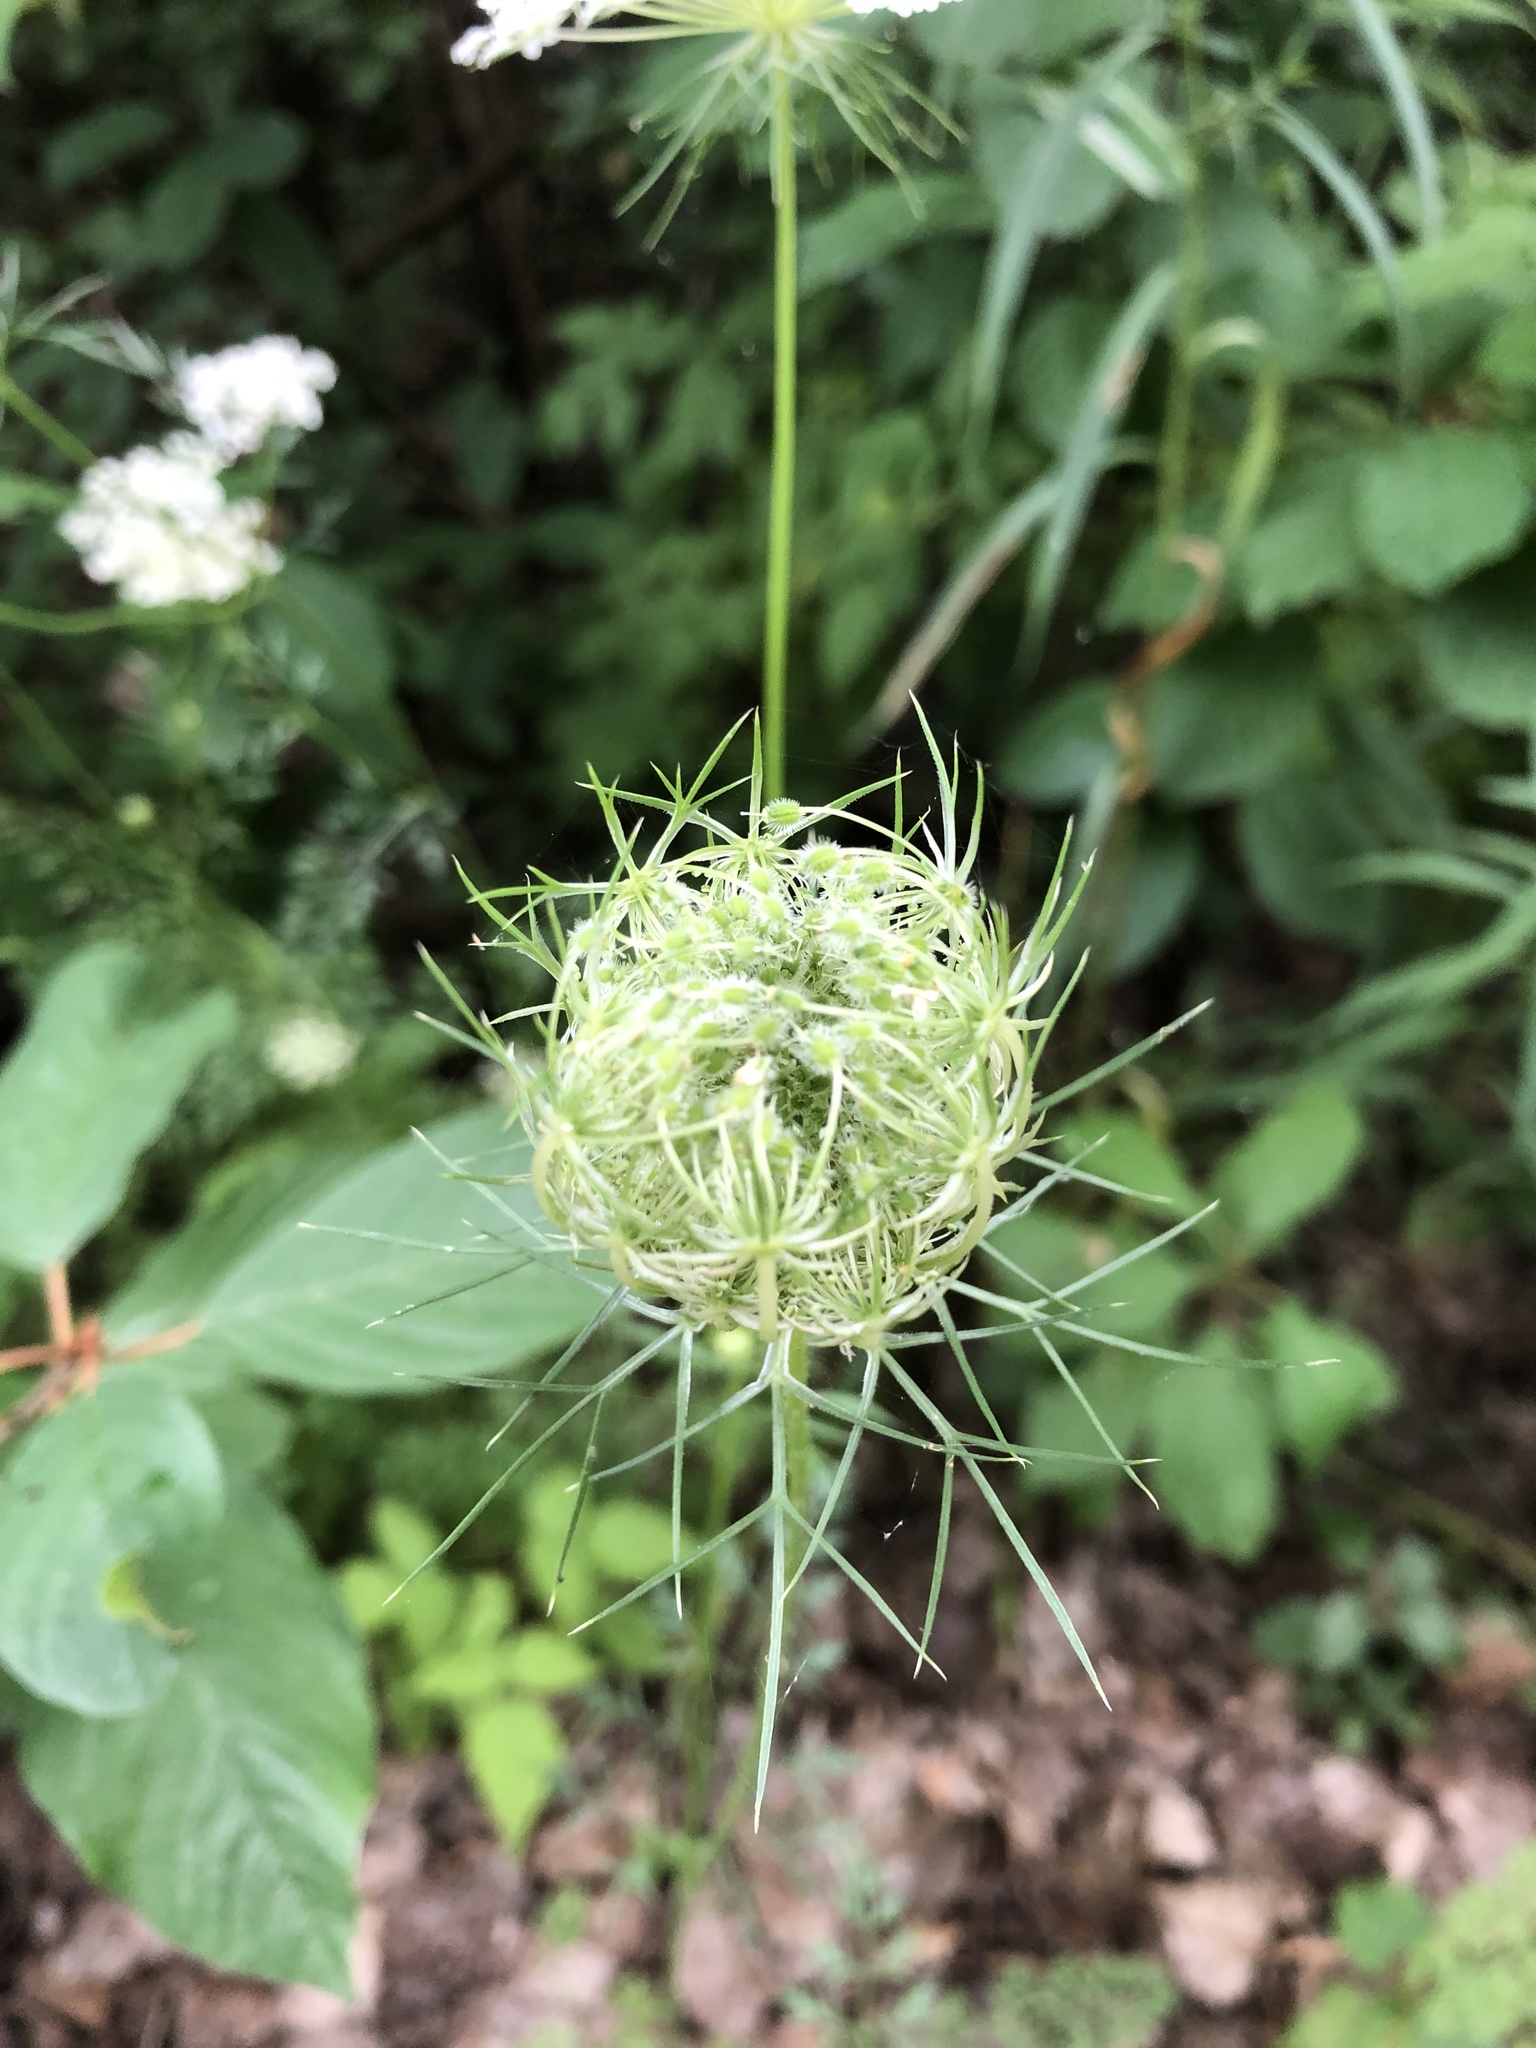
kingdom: Plantae
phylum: Tracheophyta
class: Magnoliopsida
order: Apiales
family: Apiaceae
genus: Daucus
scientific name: Daucus carota
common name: Wild carrot
